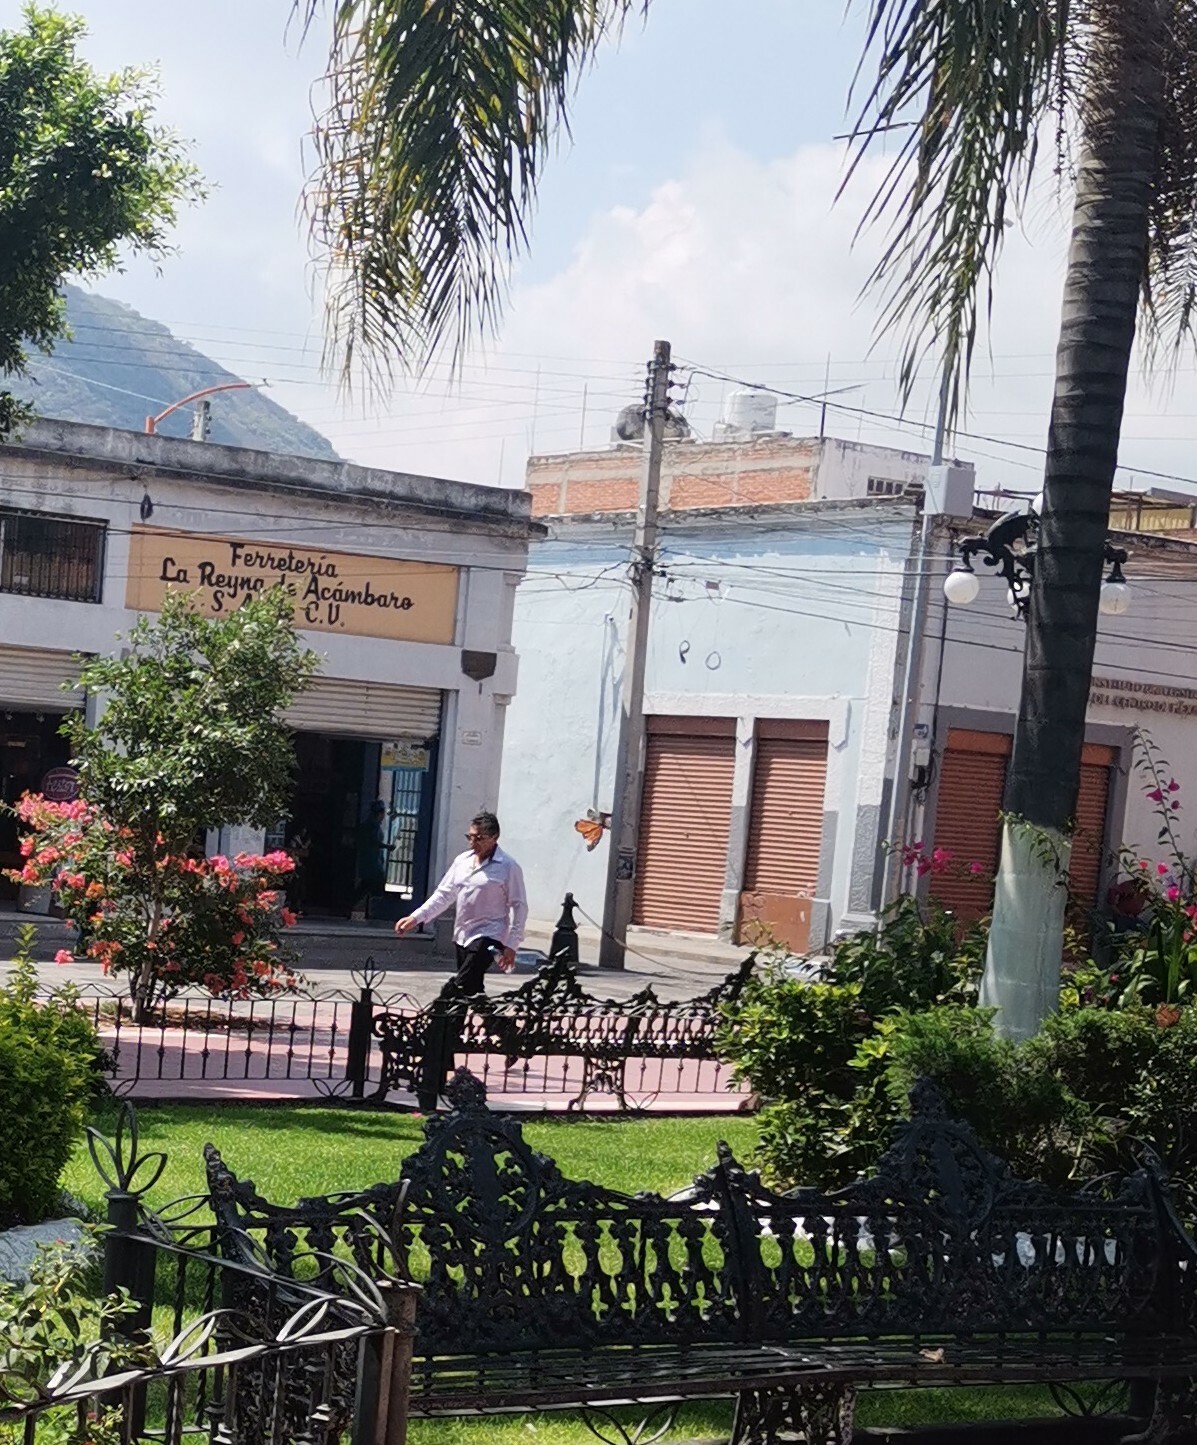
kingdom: Animalia
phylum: Arthropoda
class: Insecta
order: Lepidoptera
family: Nymphalidae
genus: Danaus
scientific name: Danaus plexippus
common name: Monarch
